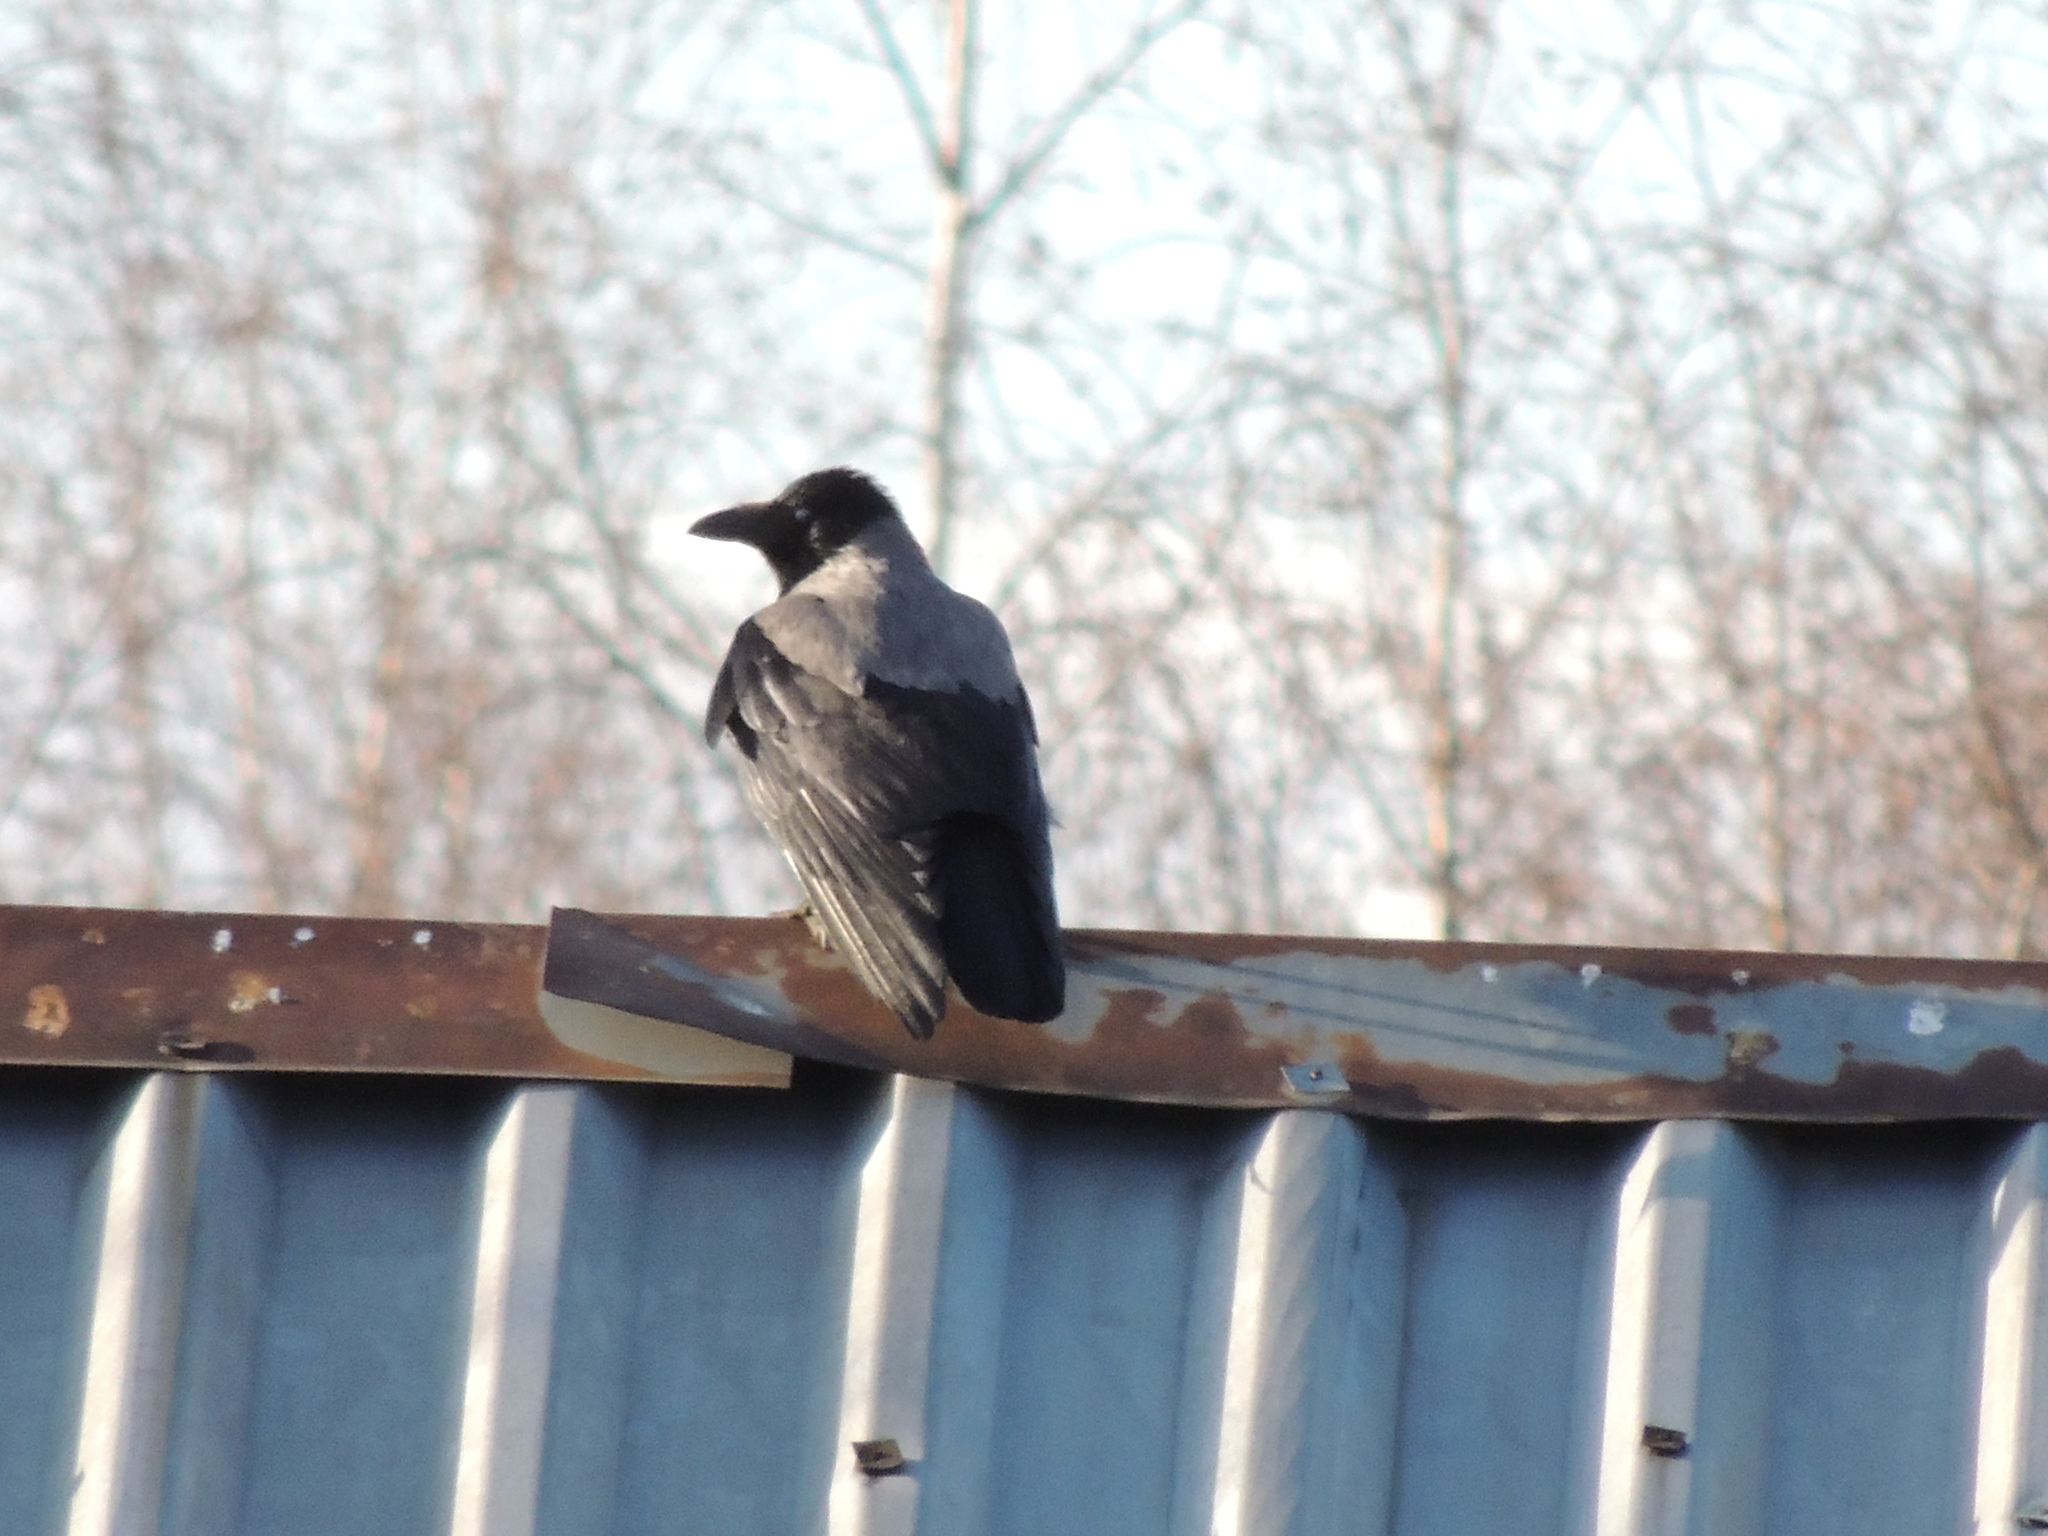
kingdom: Animalia
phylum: Chordata
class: Aves
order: Passeriformes
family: Corvidae
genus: Corvus
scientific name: Corvus cornix
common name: Hooded crow
